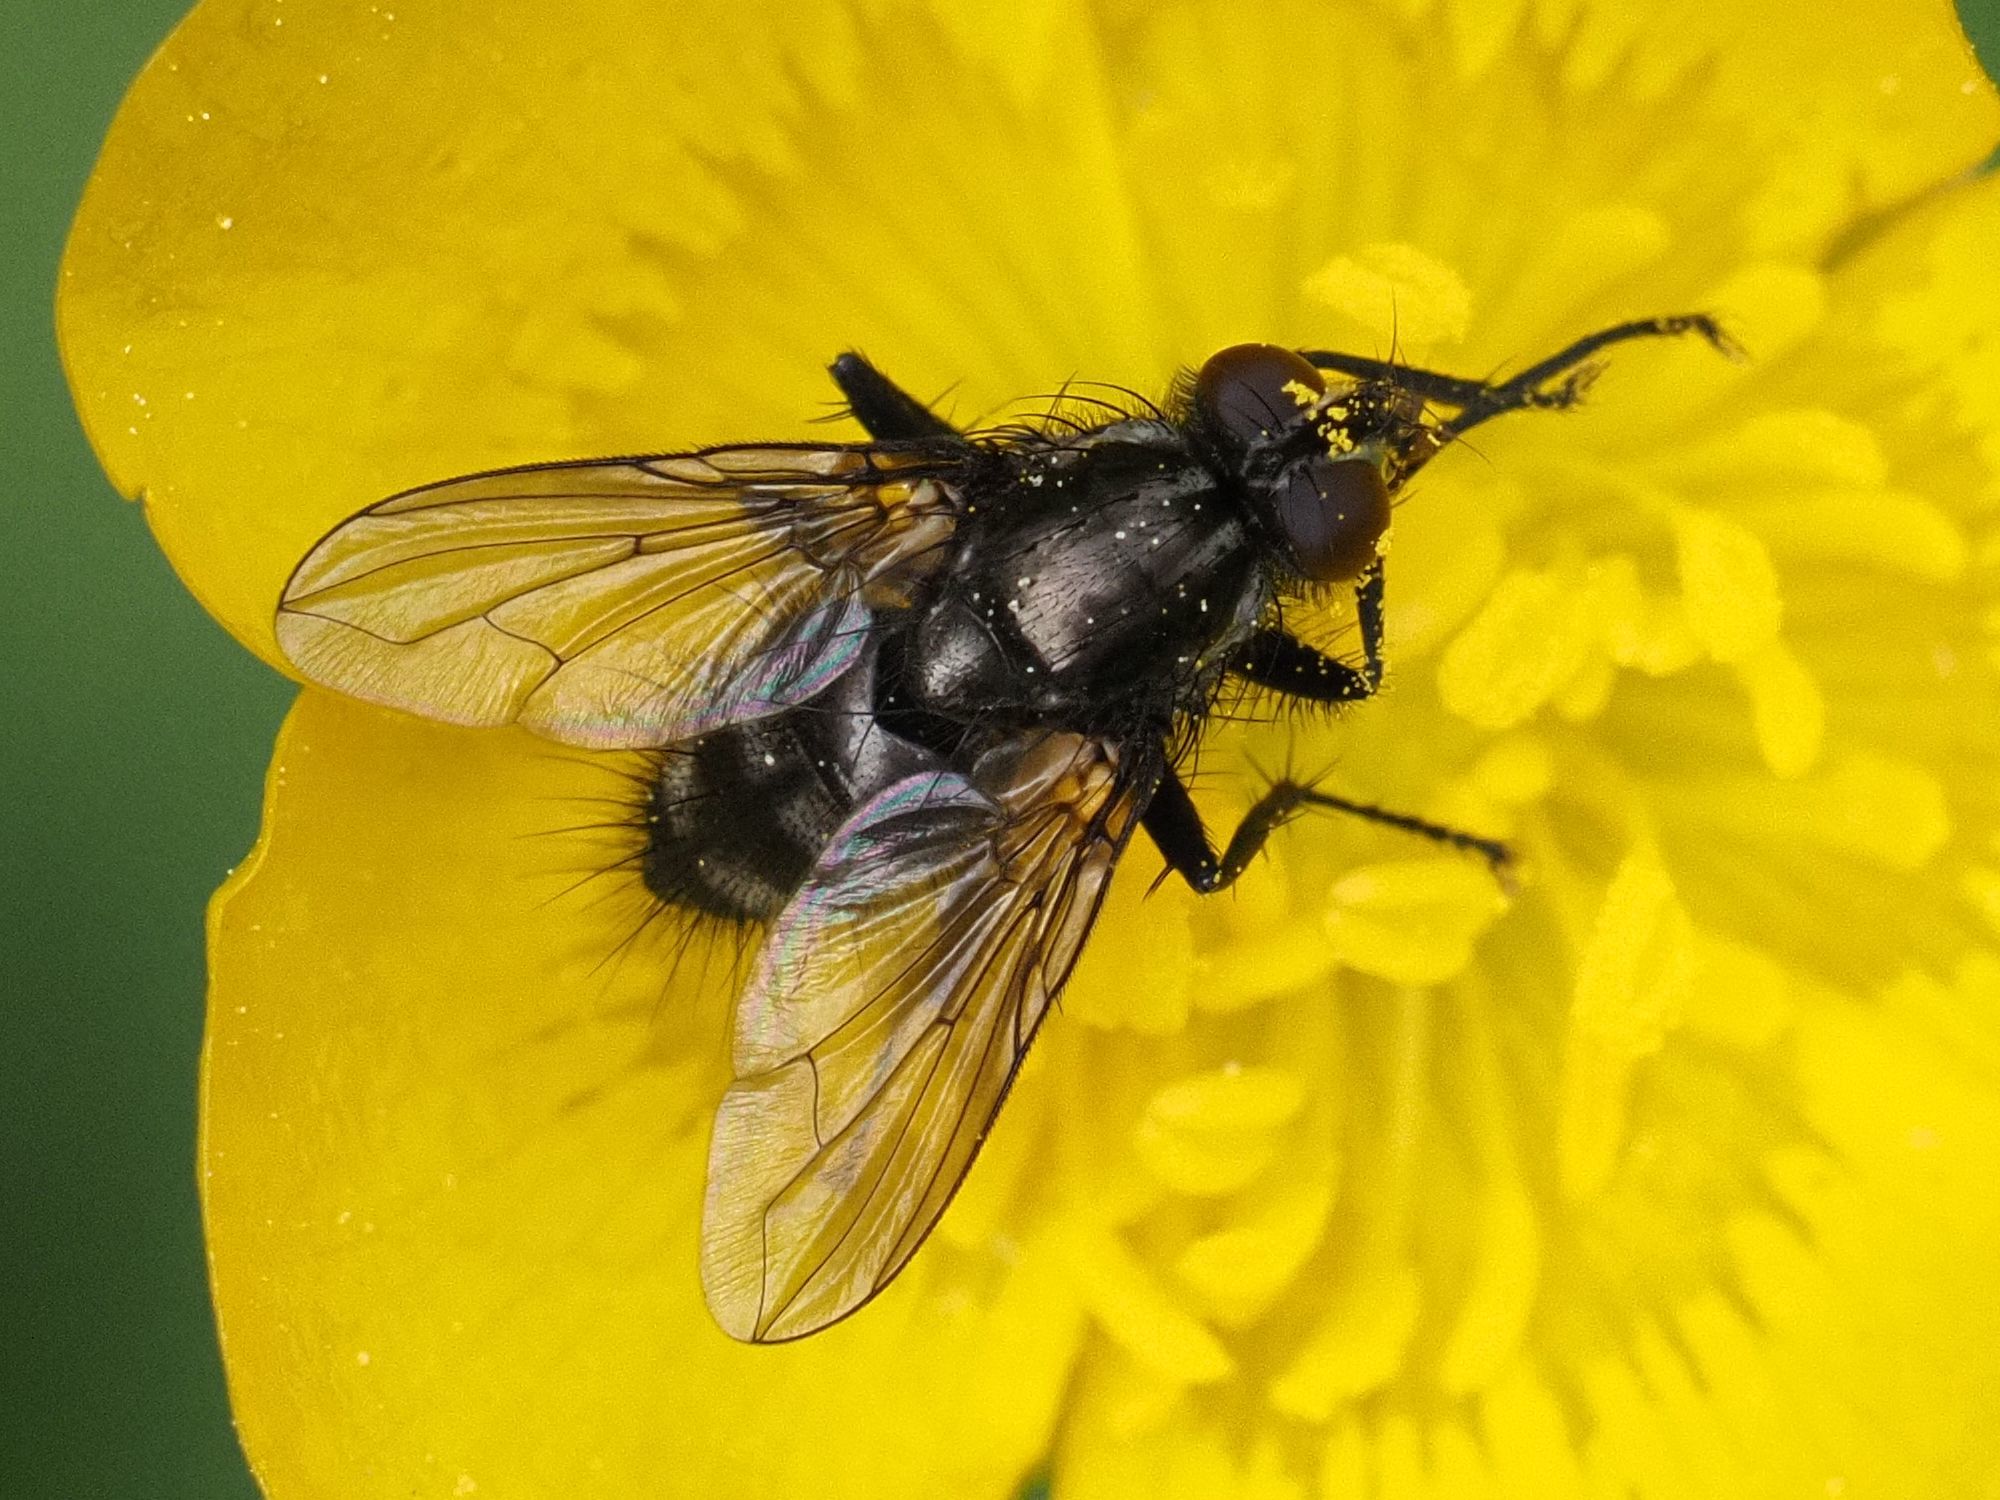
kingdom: Animalia
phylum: Arthropoda
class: Insecta
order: Diptera
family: Calliphoridae
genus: Rhinomorinia
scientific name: Rhinomorinia sarcophagina
